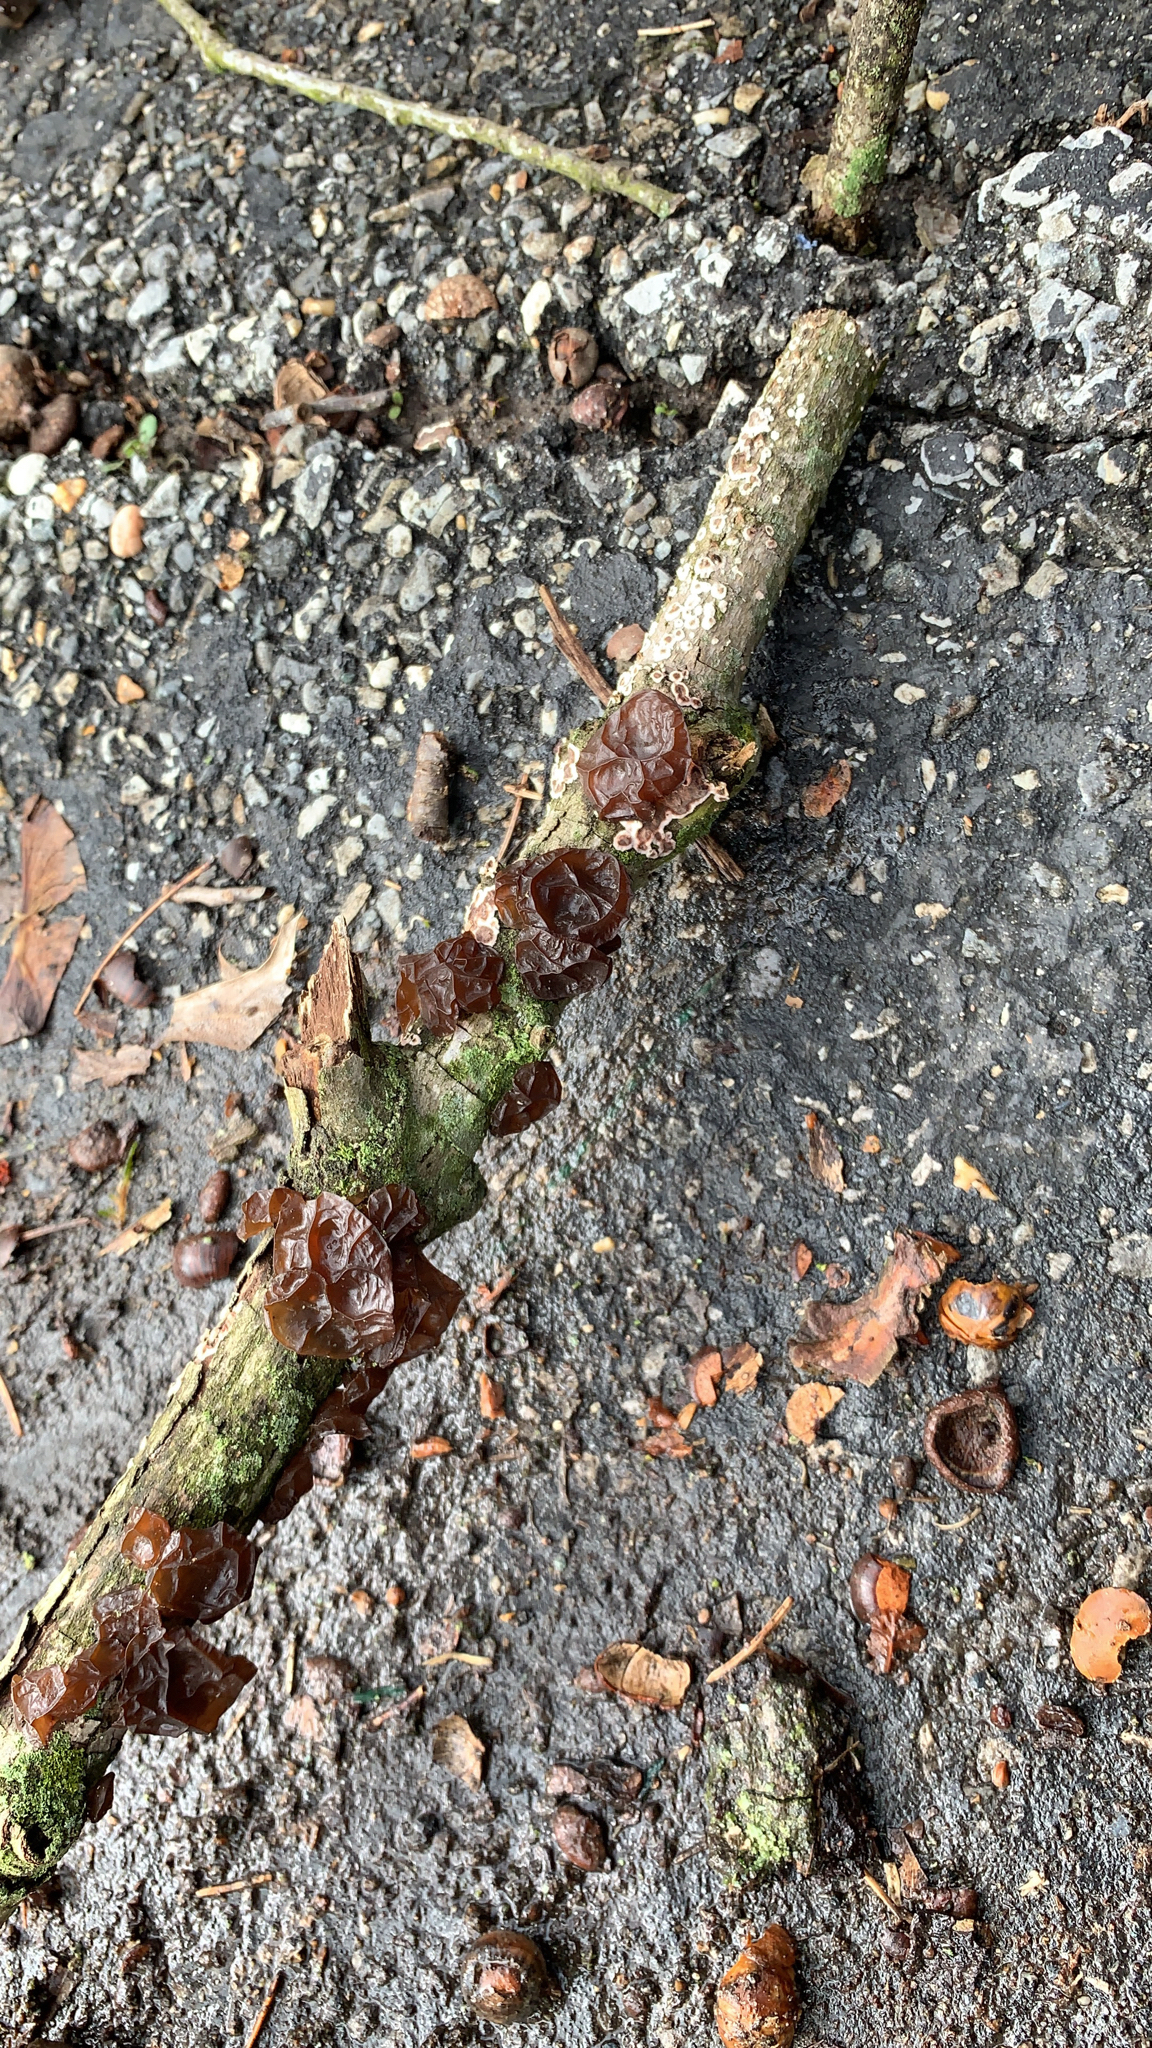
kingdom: Fungi
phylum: Basidiomycota
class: Agaricomycetes
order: Auriculariales
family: Auriculariaceae
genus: Exidia
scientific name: Exidia
